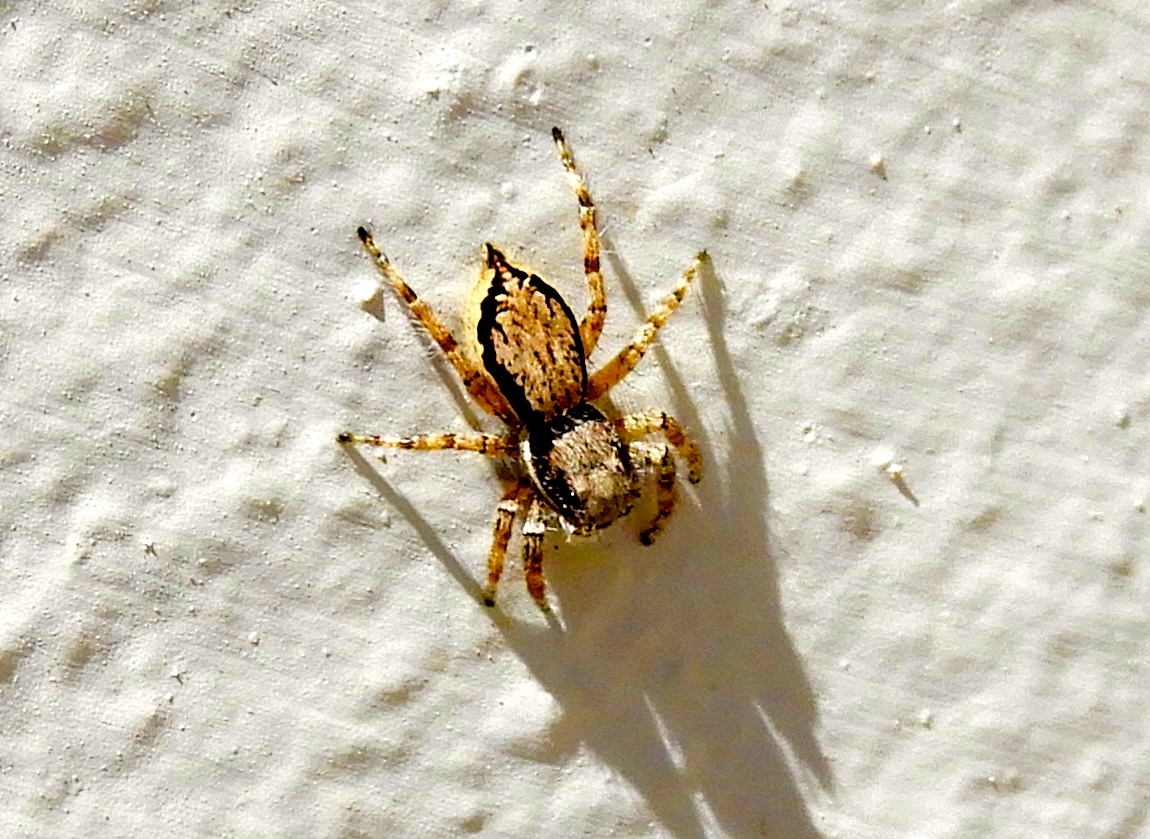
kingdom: Animalia
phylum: Arthropoda
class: Arachnida
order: Araneae
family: Salticidae
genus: Menemerus
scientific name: Menemerus bivittatus
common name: Gray wall jumper
